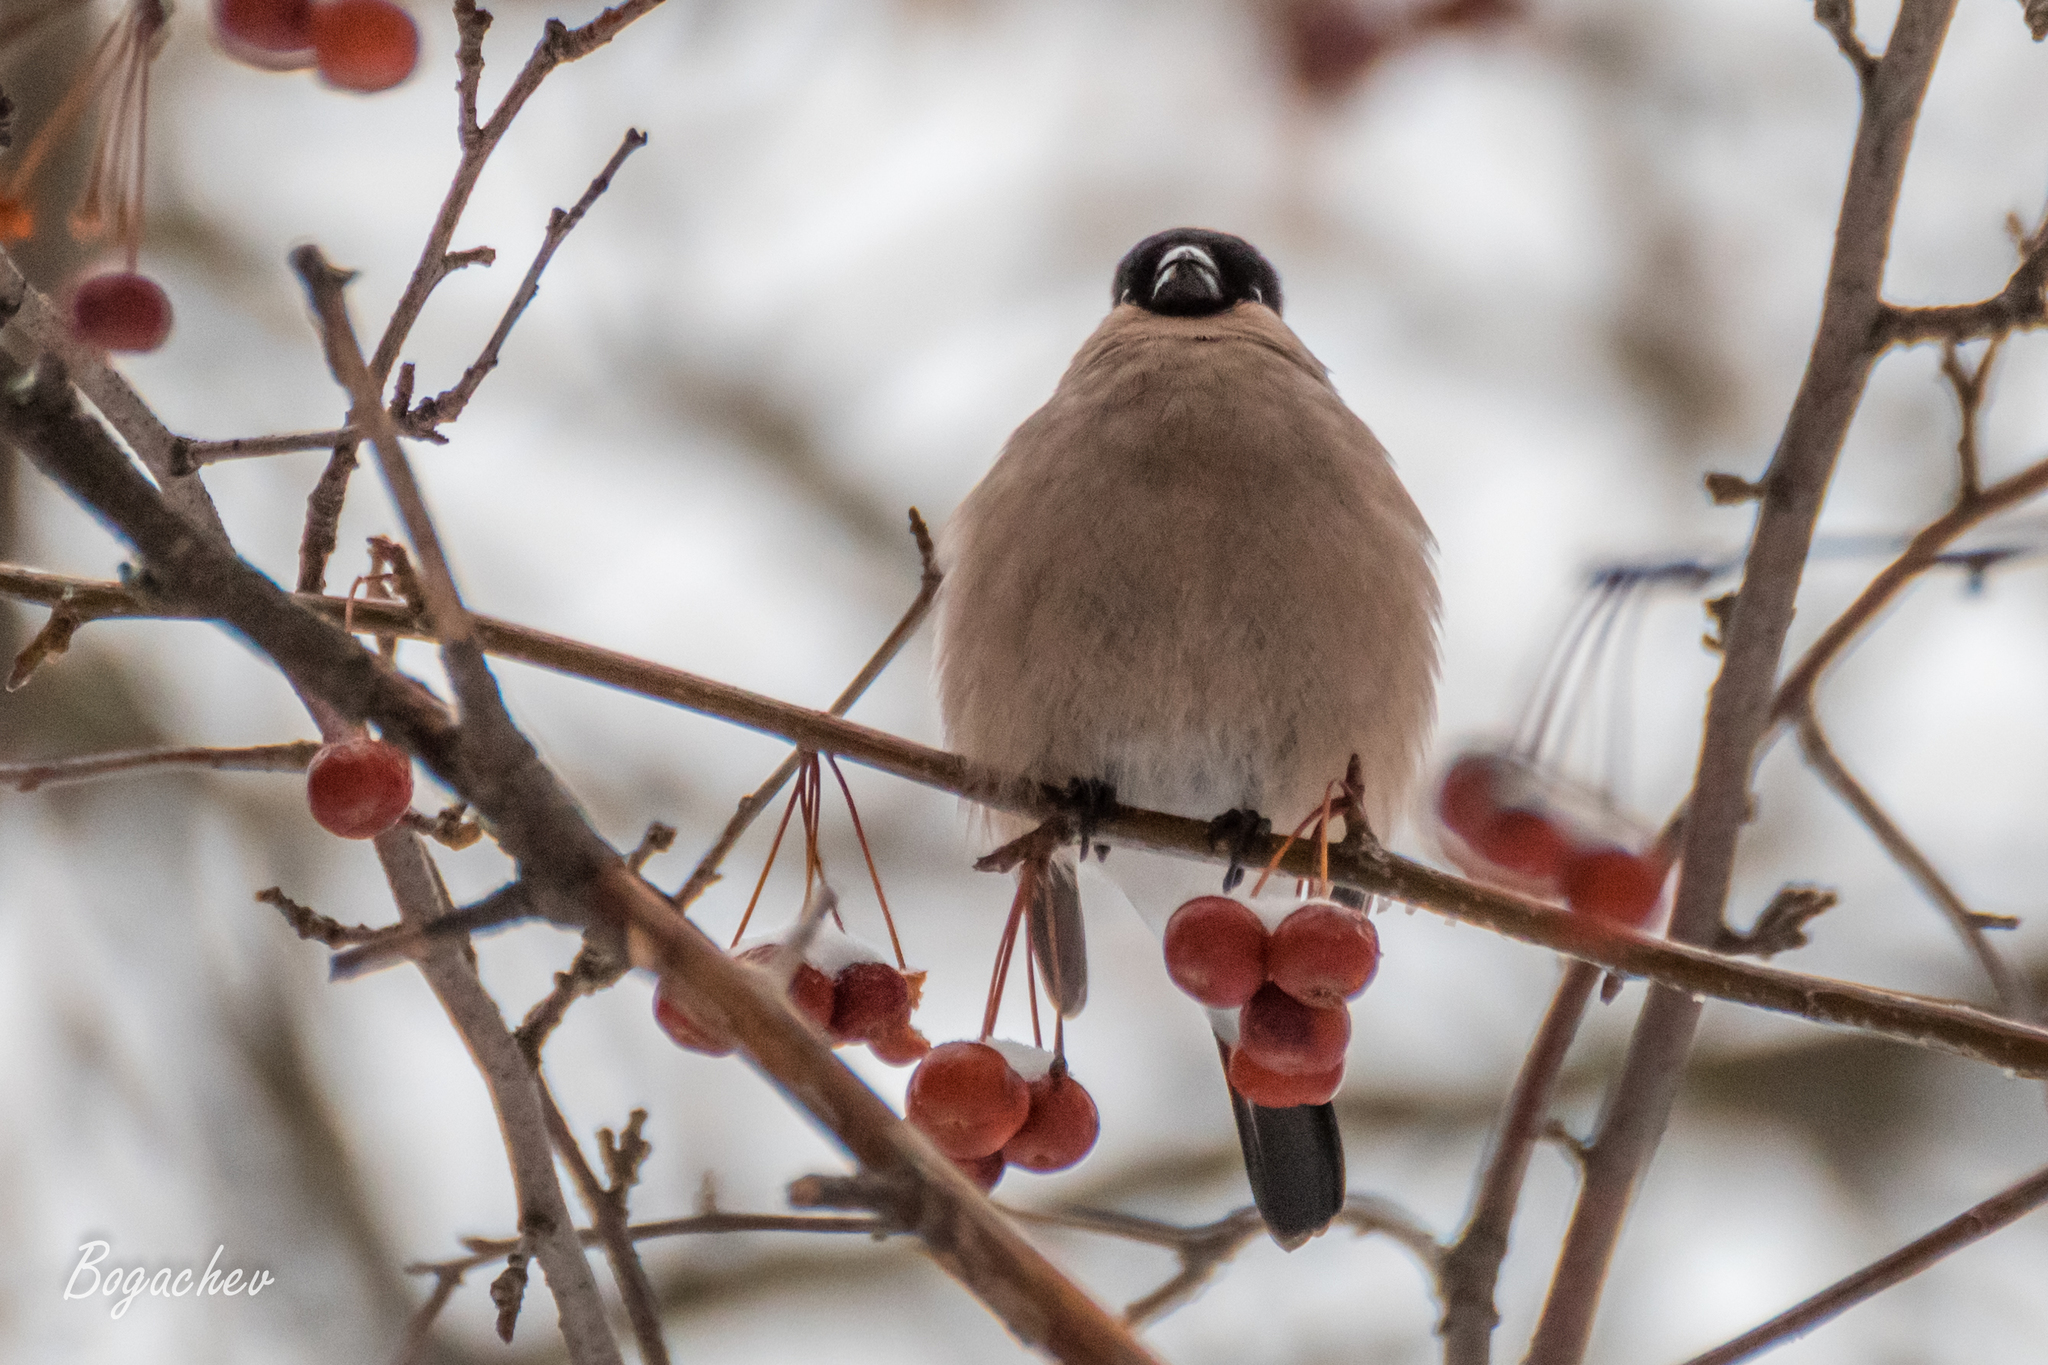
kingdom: Animalia
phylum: Chordata
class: Aves
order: Passeriformes
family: Fringillidae
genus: Pyrrhula
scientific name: Pyrrhula pyrrhula
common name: Eurasian bullfinch
